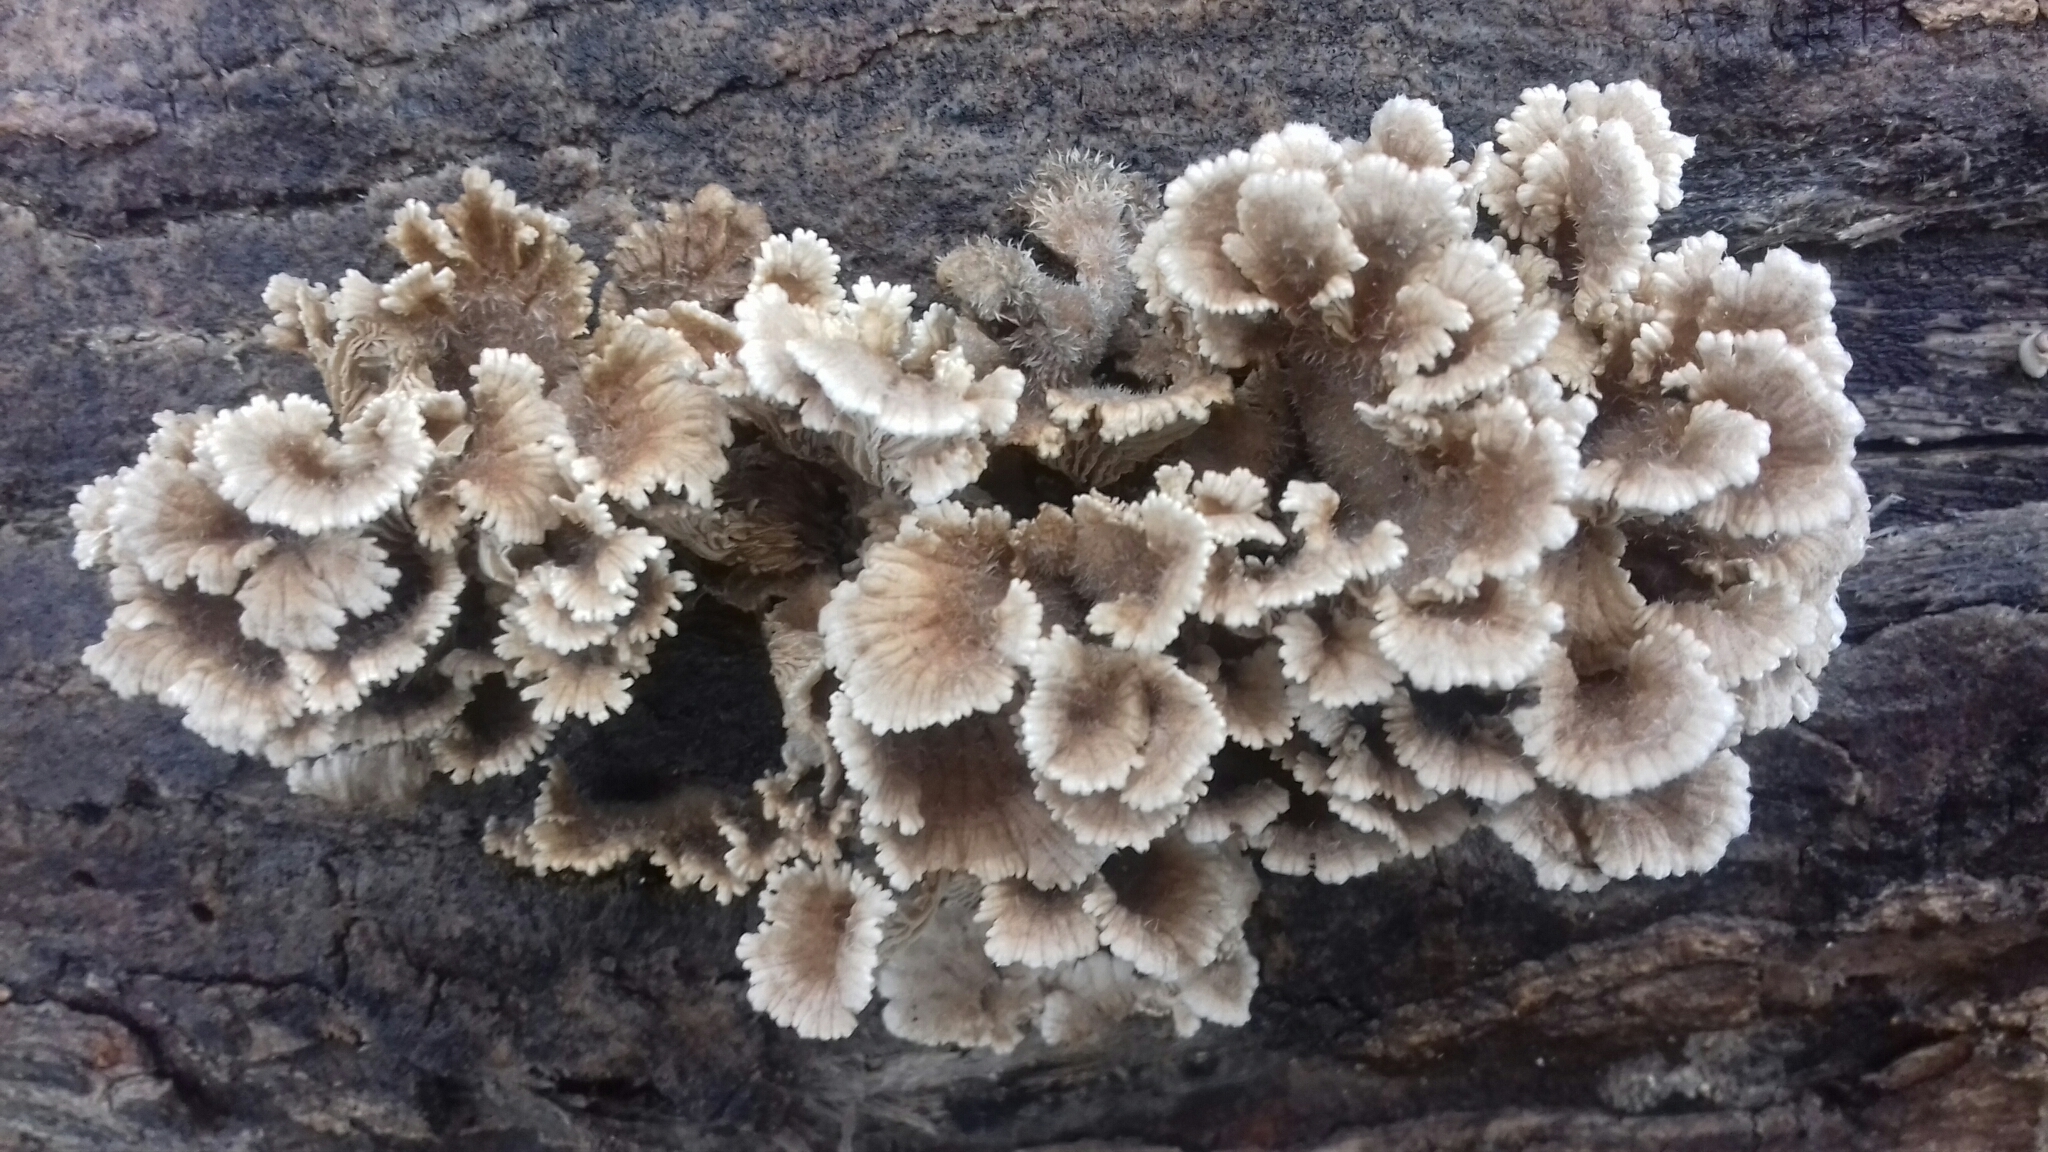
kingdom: Fungi
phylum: Basidiomycota
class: Agaricomycetes
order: Agaricales
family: Schizophyllaceae
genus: Schizophyllum
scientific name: Schizophyllum commune
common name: Common porecrust
